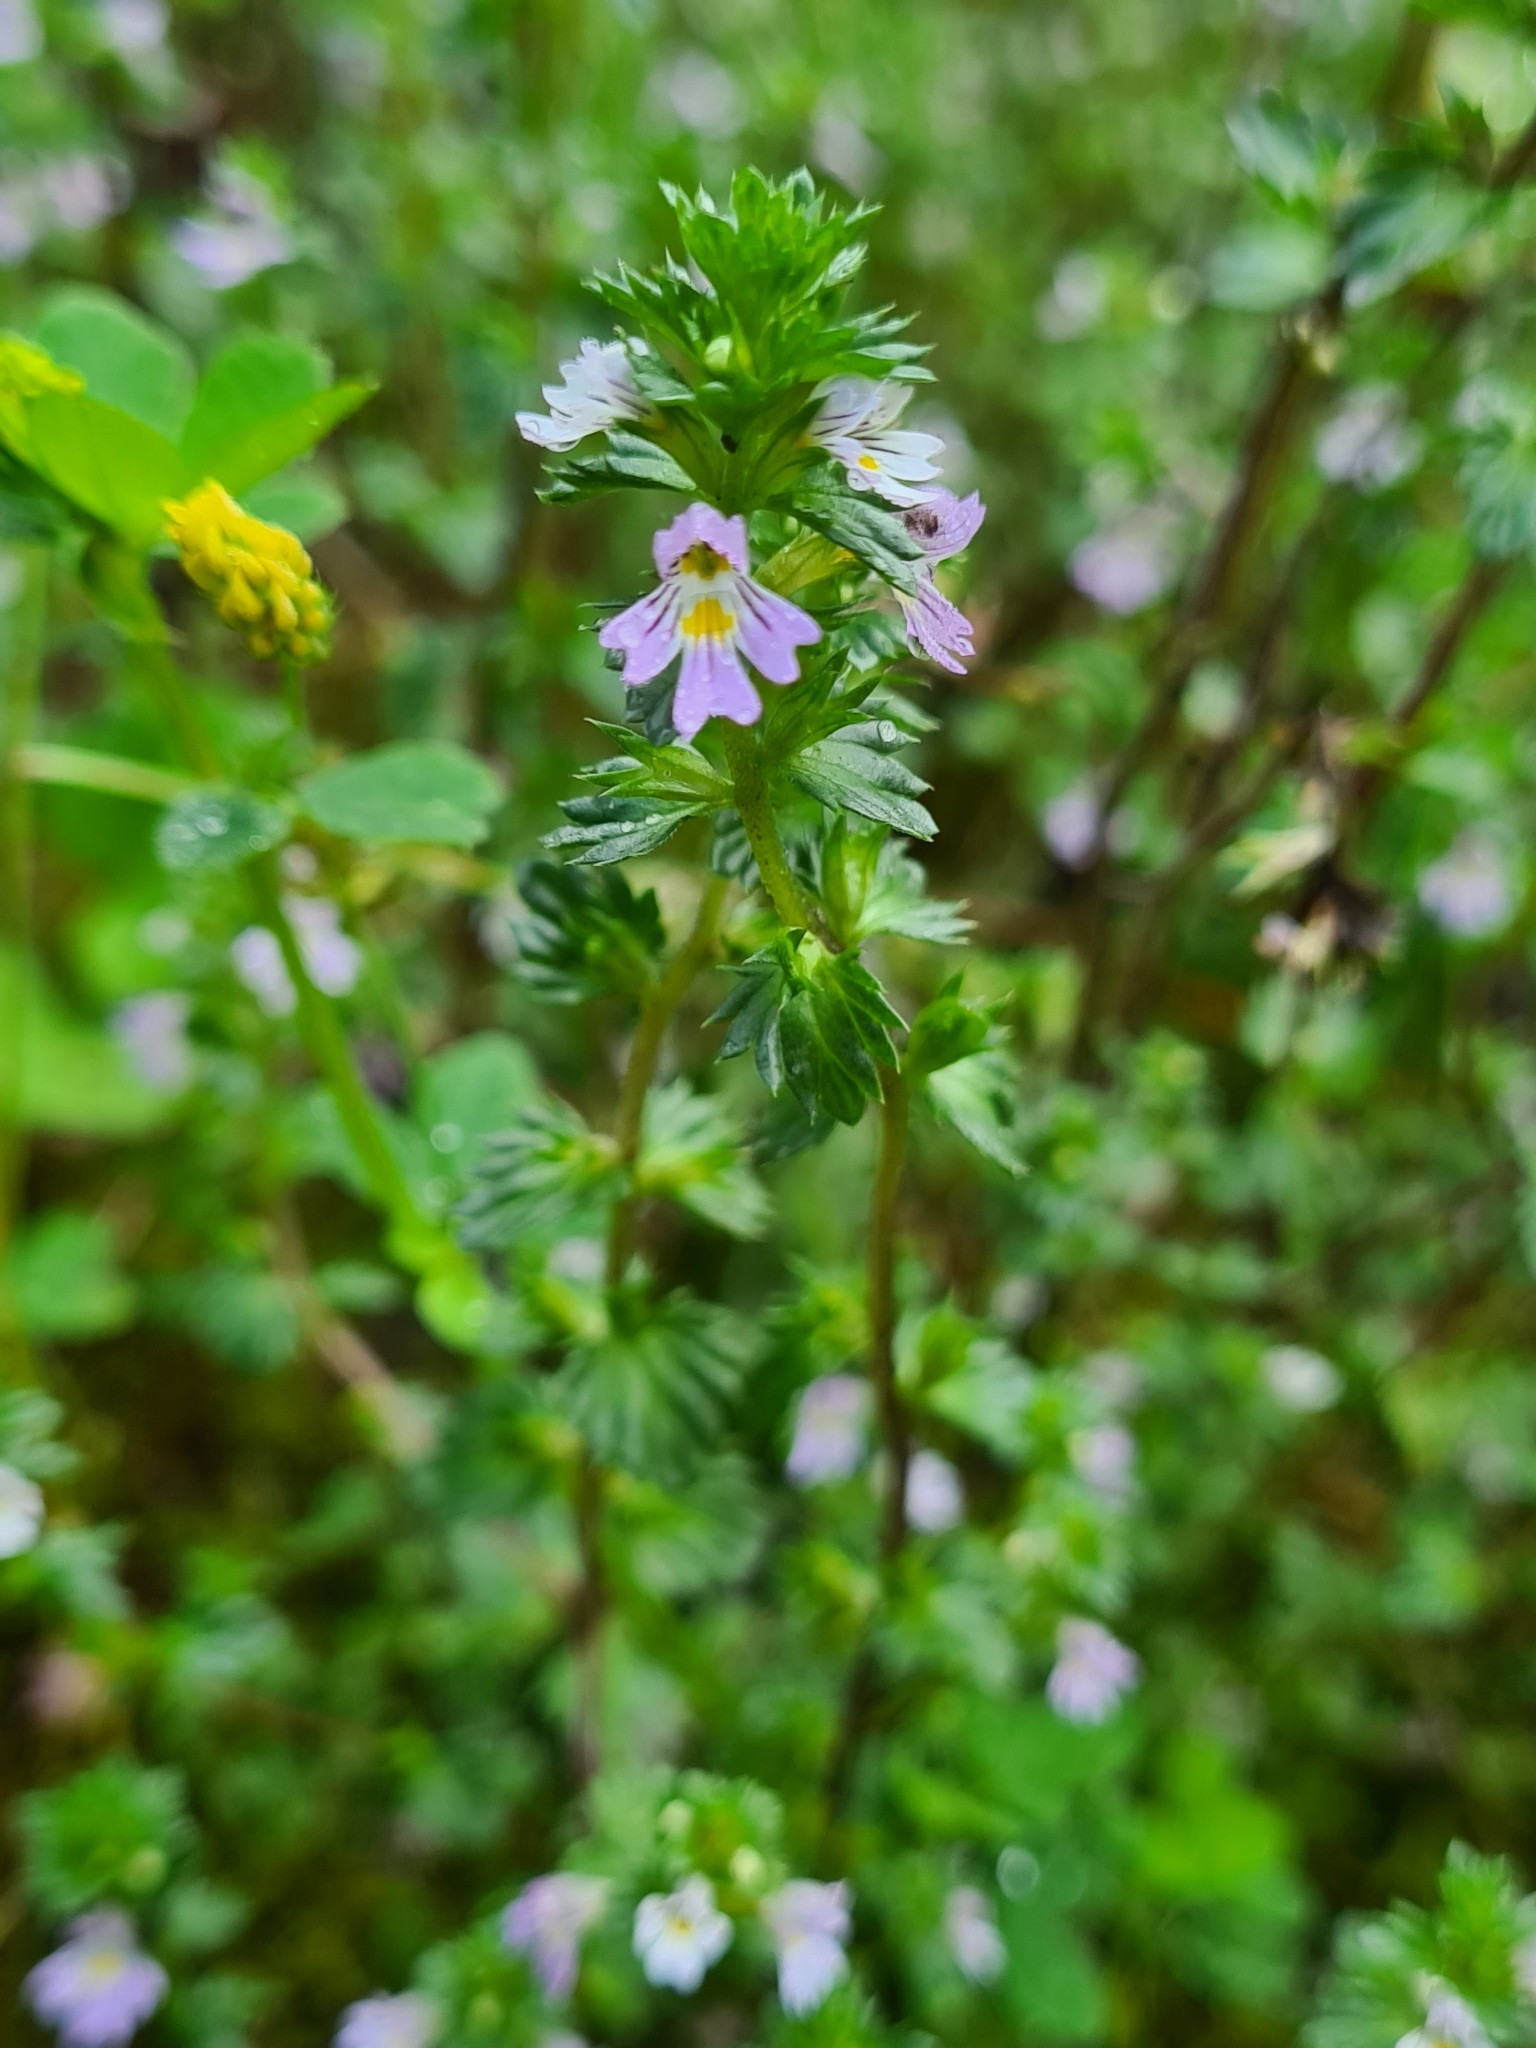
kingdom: Plantae
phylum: Tracheophyta
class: Magnoliopsida
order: Lamiales
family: Orobanchaceae
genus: Euphrasia
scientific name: Euphrasia stricta
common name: Drug eyebright
